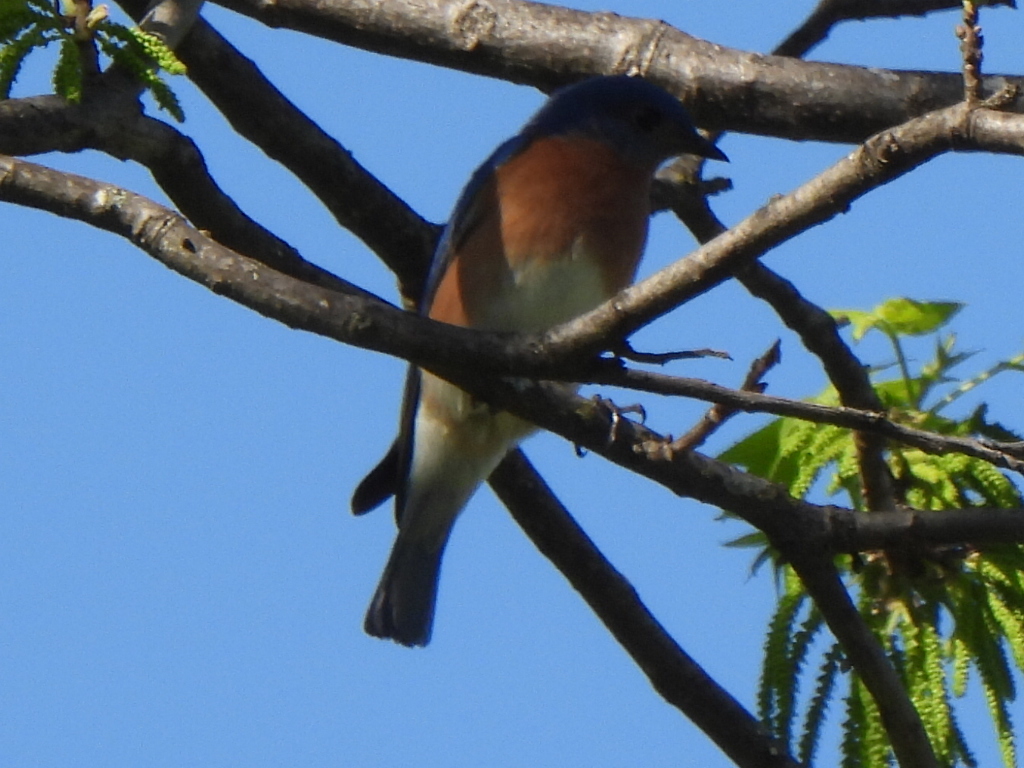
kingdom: Animalia
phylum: Chordata
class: Aves
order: Passeriformes
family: Turdidae
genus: Sialia
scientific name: Sialia sialis
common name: Eastern bluebird
